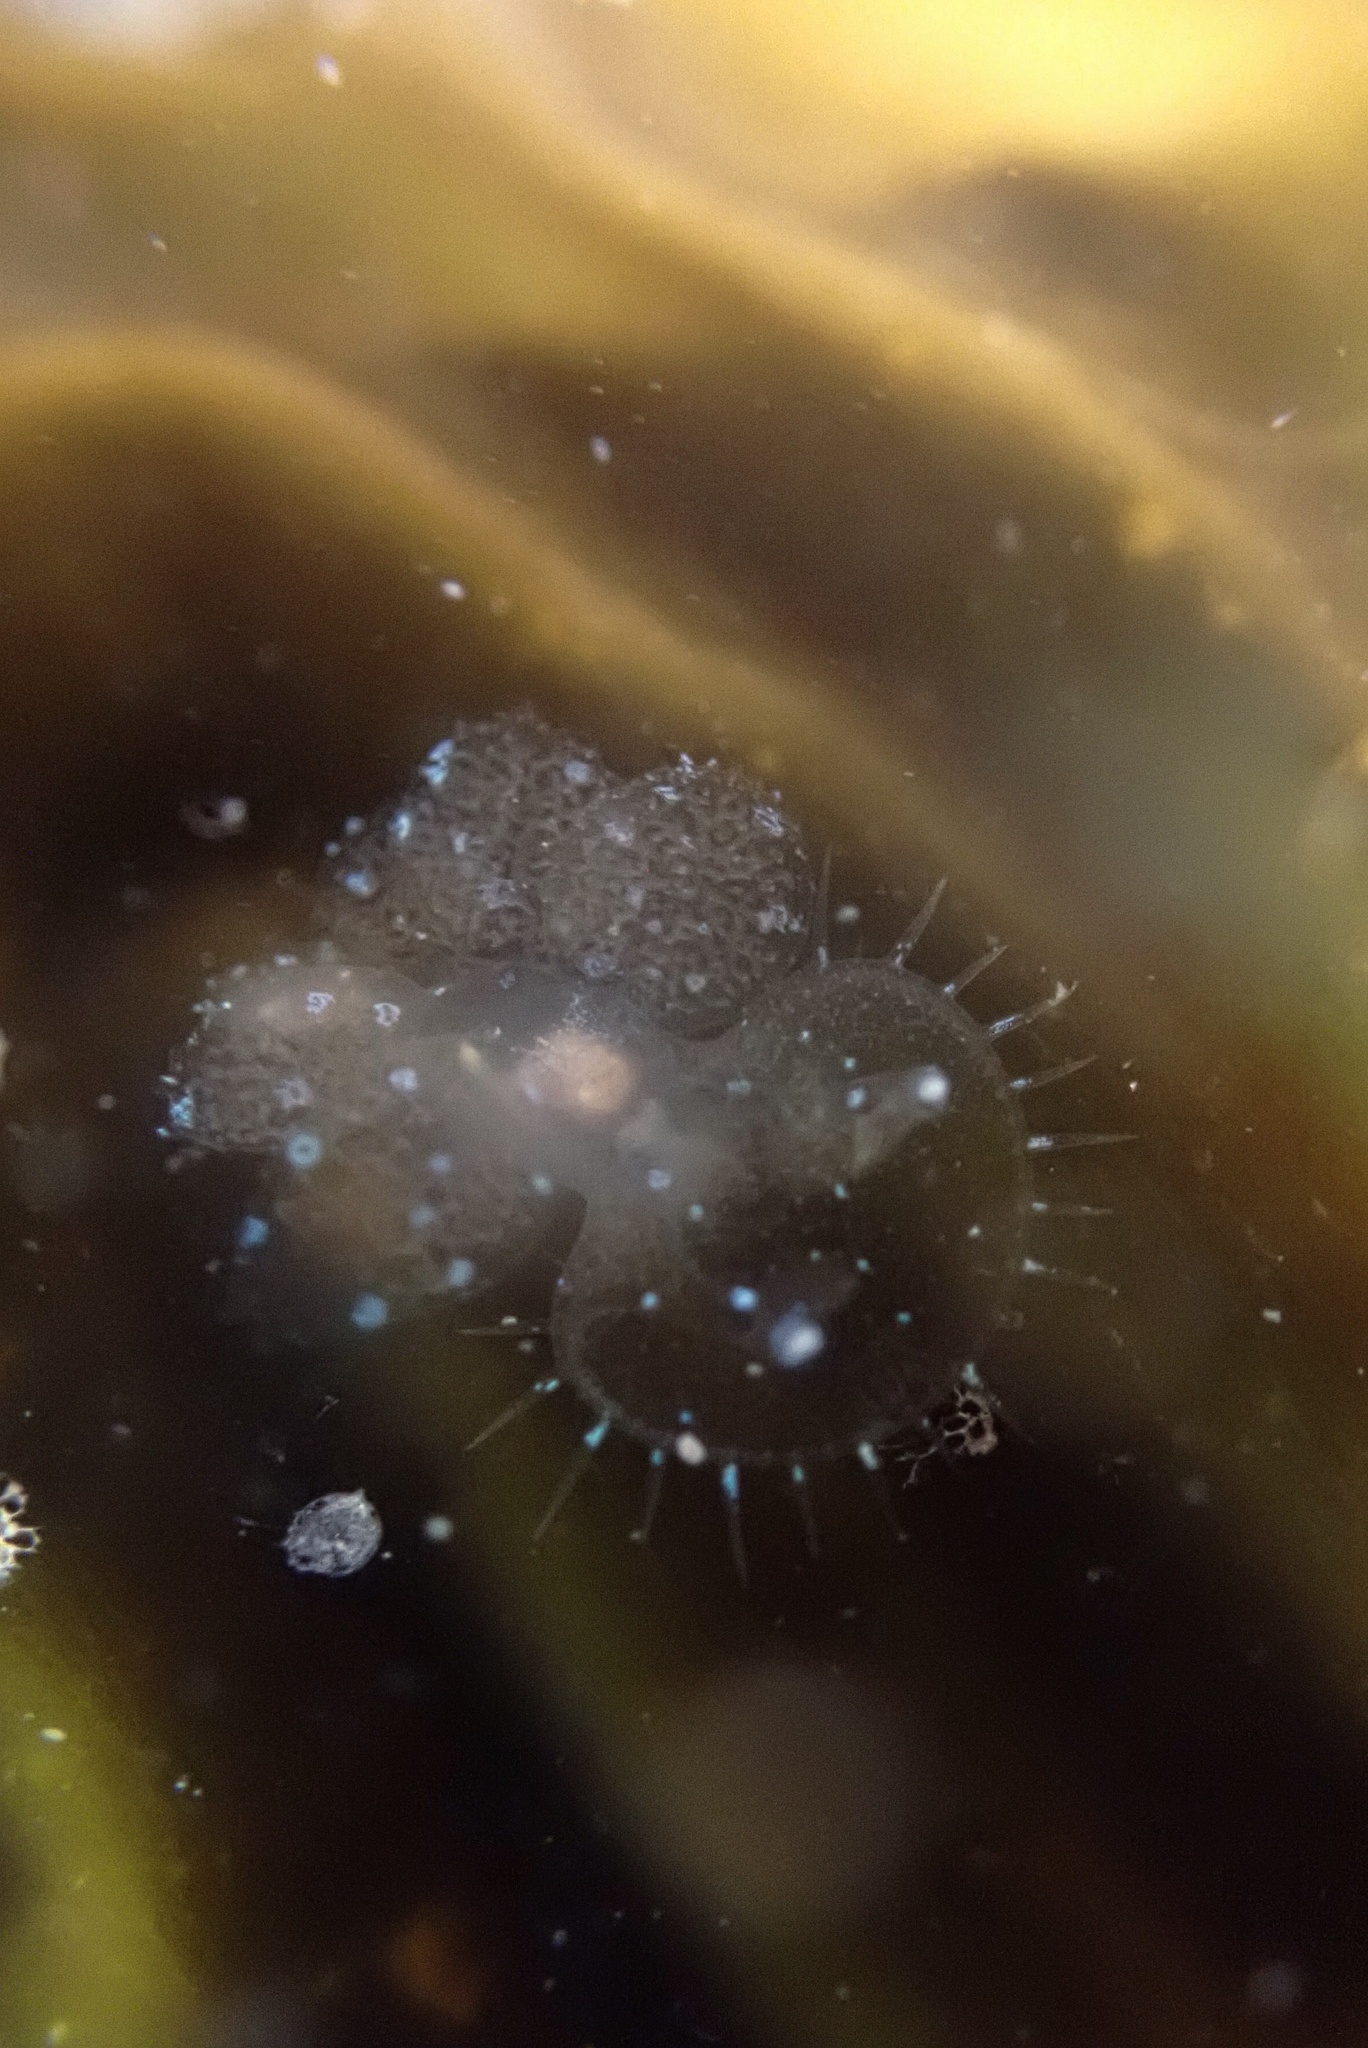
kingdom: Animalia
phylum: Mollusca
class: Gastropoda
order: Nudibranchia
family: Tethydidae
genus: Melibe
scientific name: Melibe leonina
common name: Lion nudibranch
